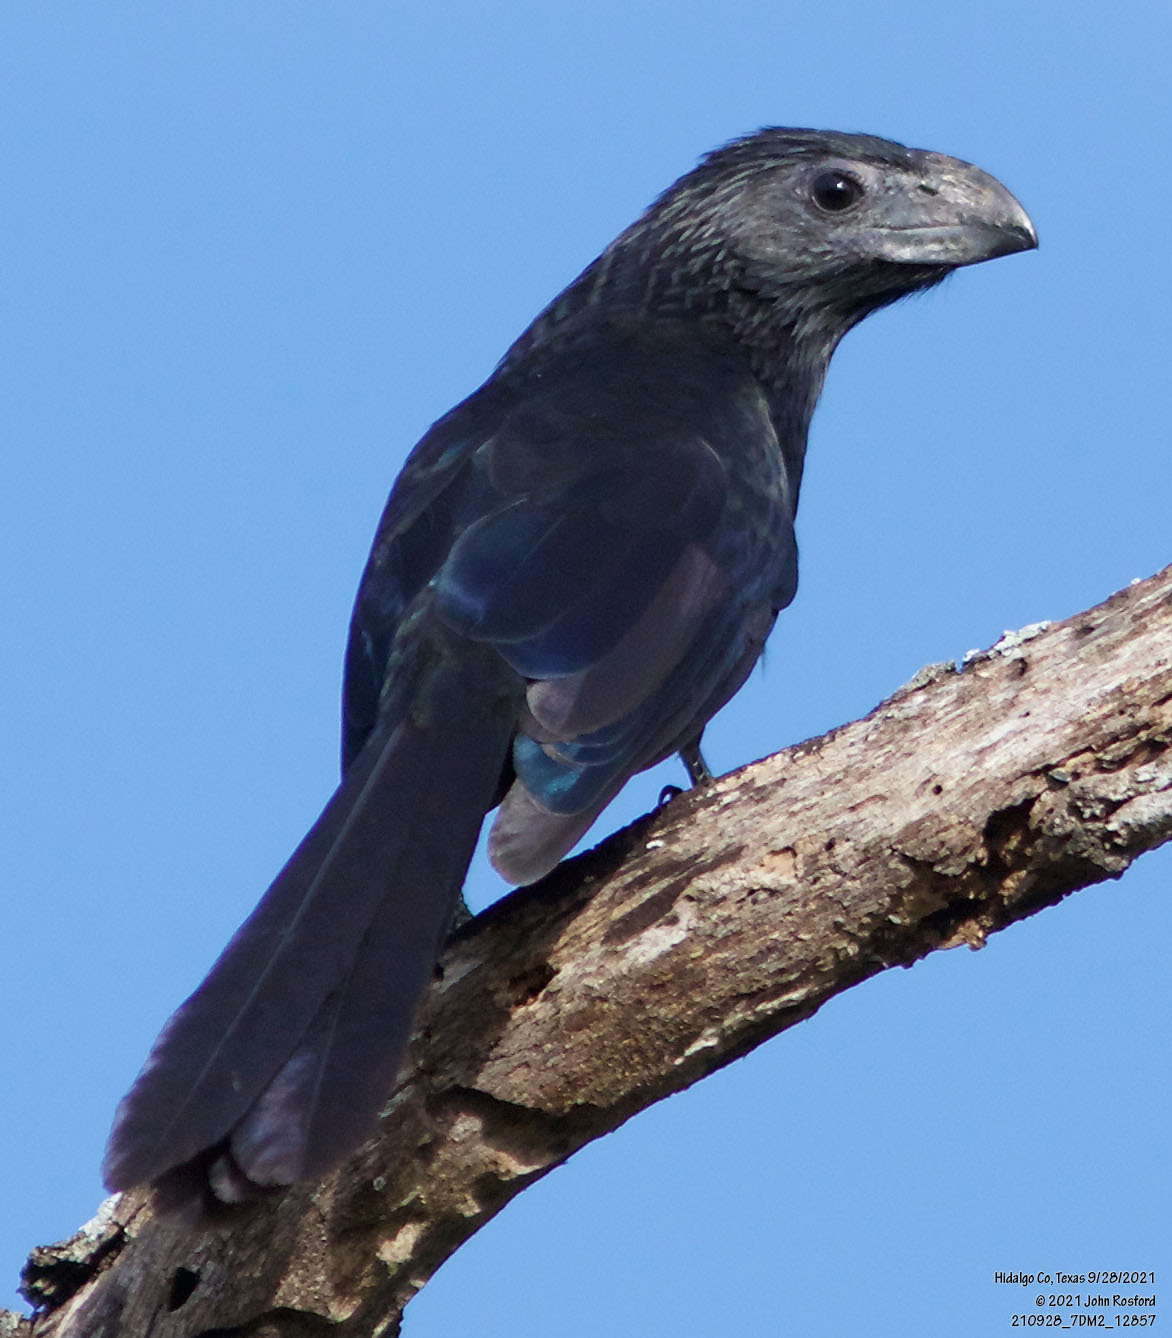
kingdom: Animalia
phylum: Chordata
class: Aves
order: Cuculiformes
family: Cuculidae
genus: Crotophaga
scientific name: Crotophaga sulcirostris
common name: Groove-billed ani
